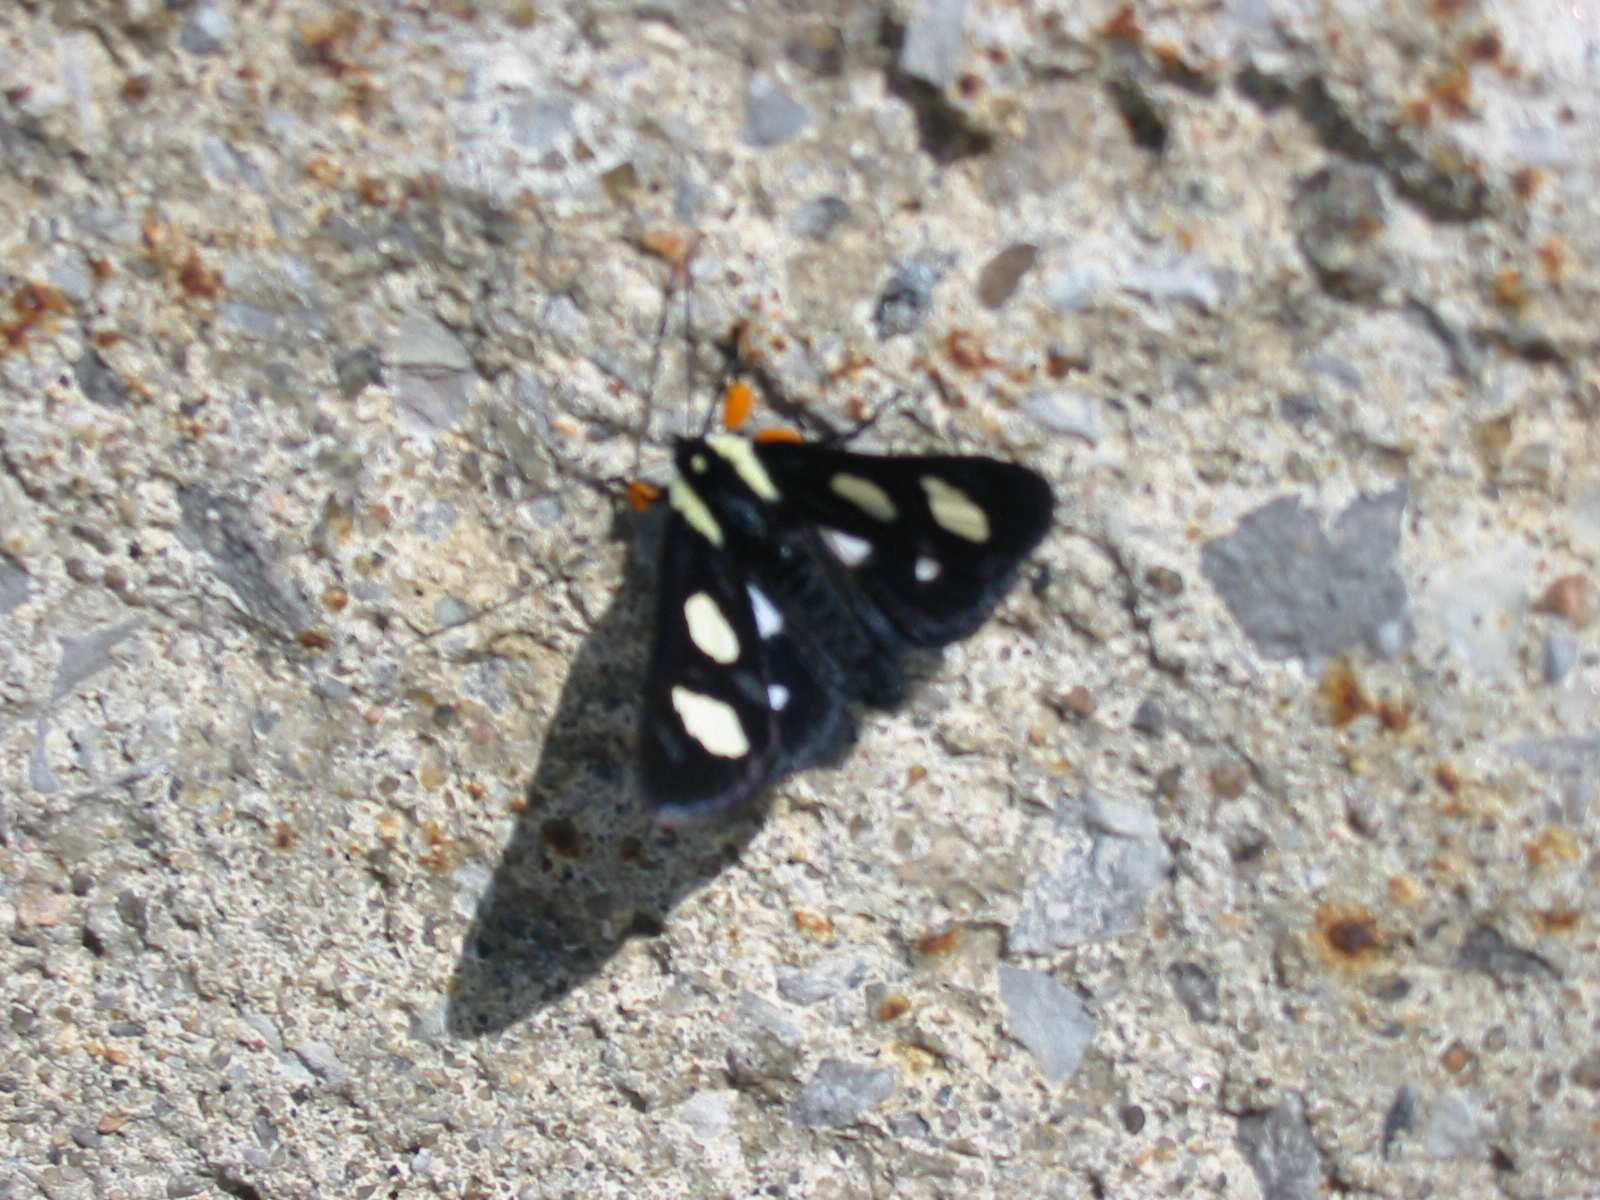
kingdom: Animalia
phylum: Arthropoda
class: Insecta
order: Lepidoptera
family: Noctuidae
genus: Alypia
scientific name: Alypia octomaculata
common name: Eight-spotted forester
